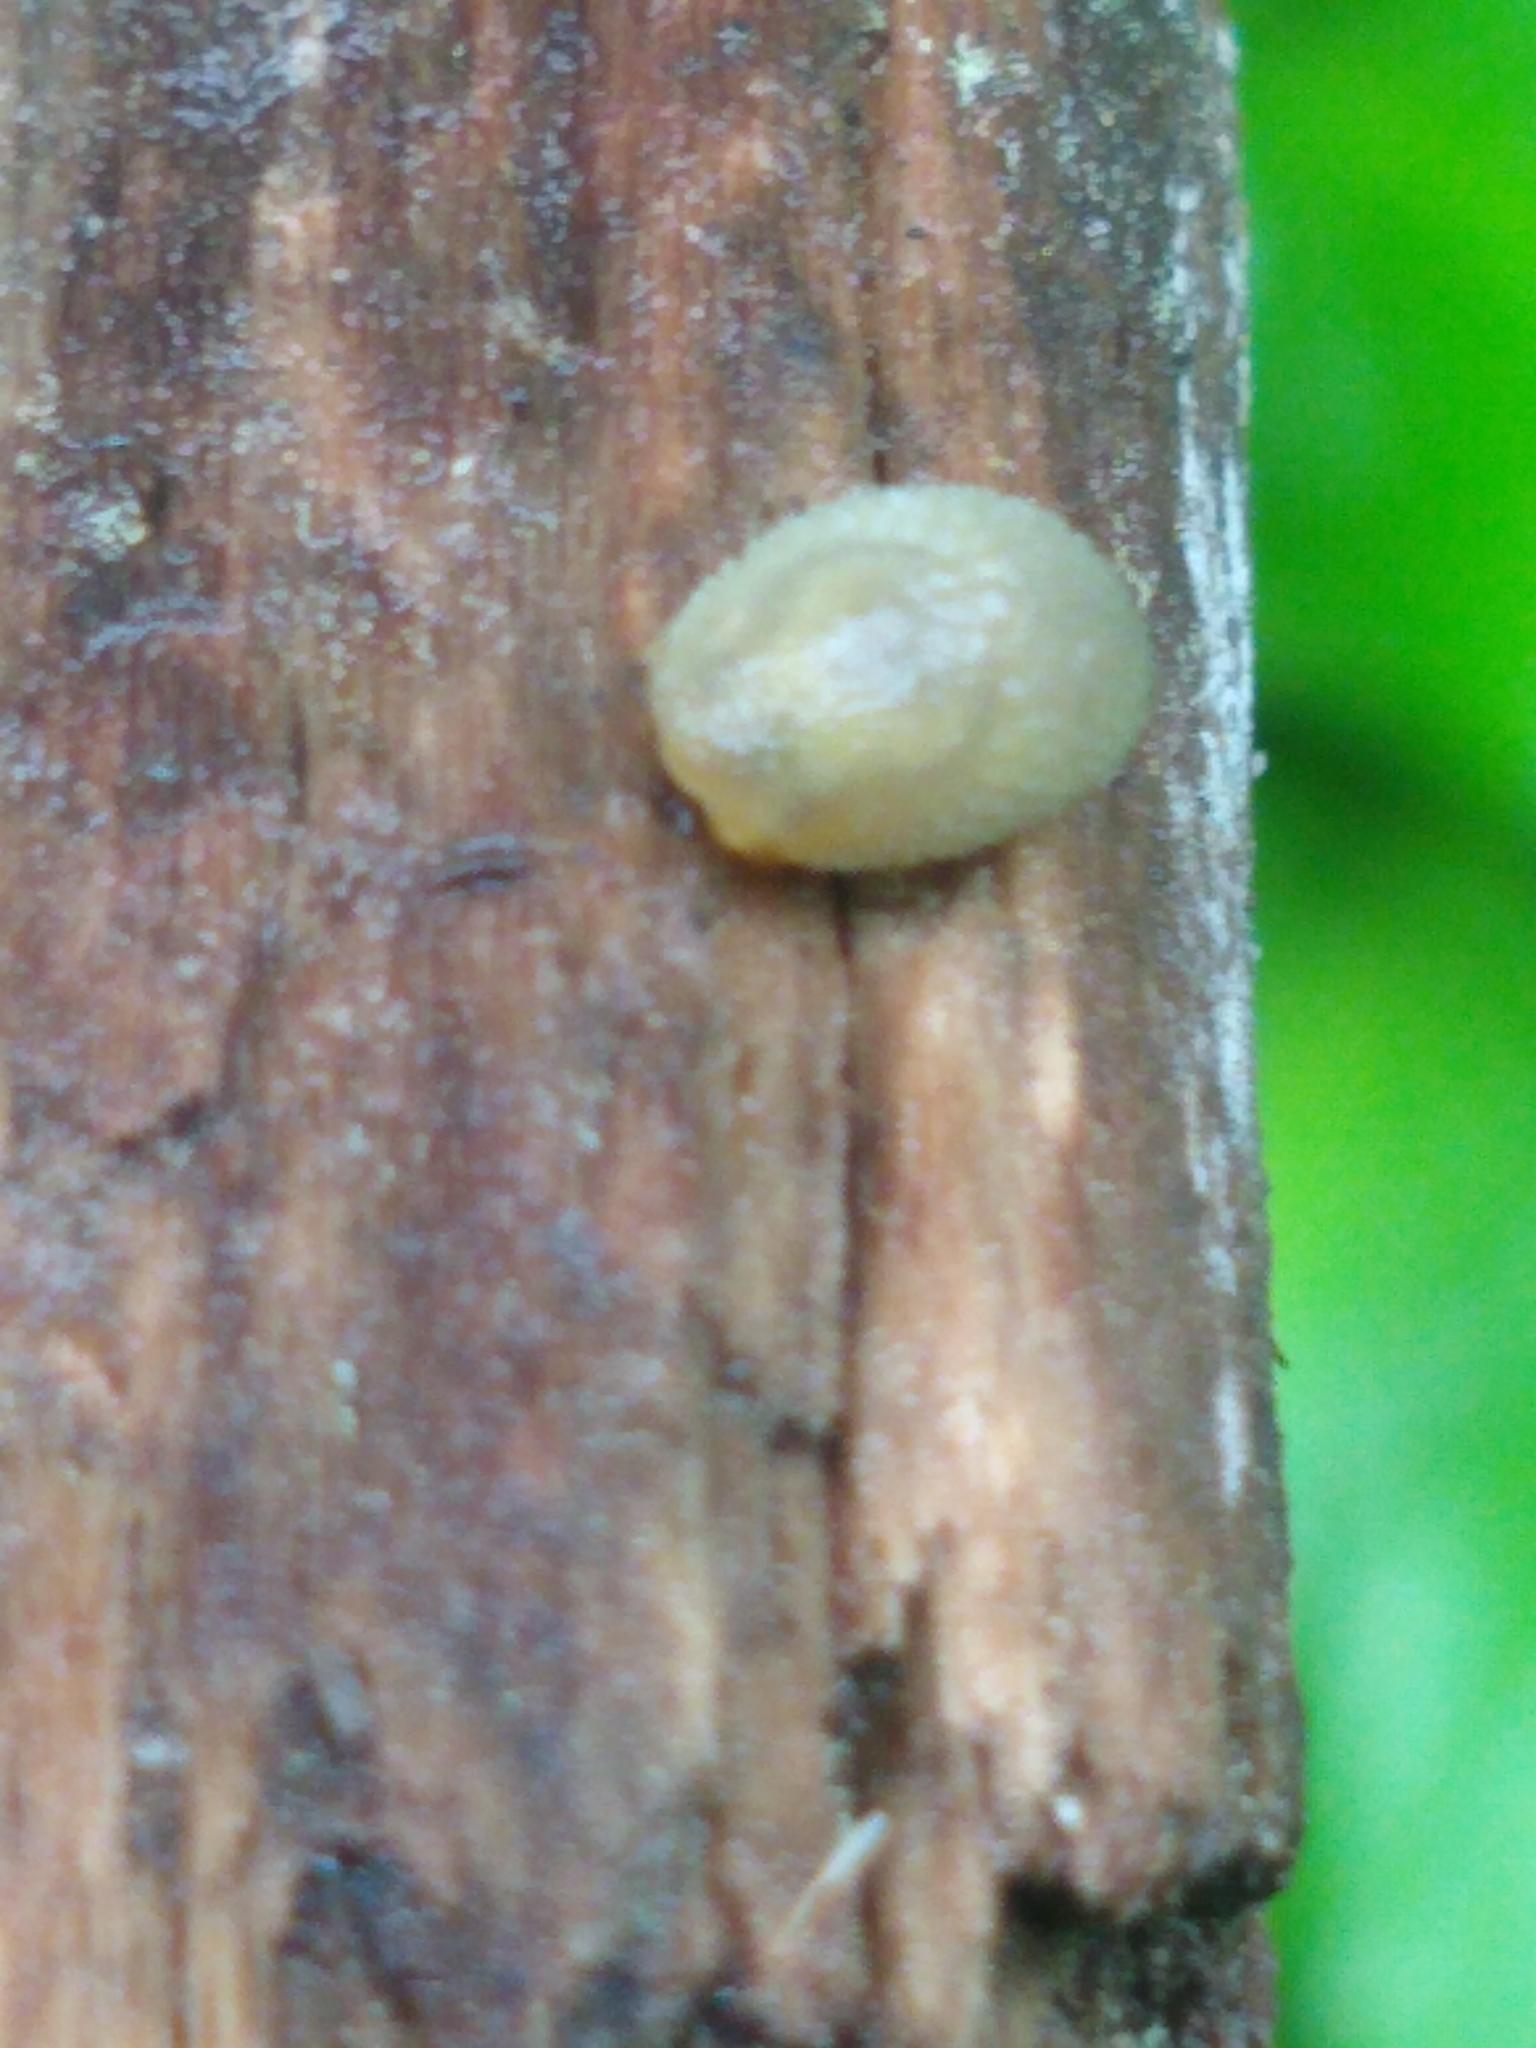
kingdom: Animalia
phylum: Mollusca
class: Gastropoda
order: Stylommatophora
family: Arionidae
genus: Arion
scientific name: Arion intermedius
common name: Hedgehog slug
